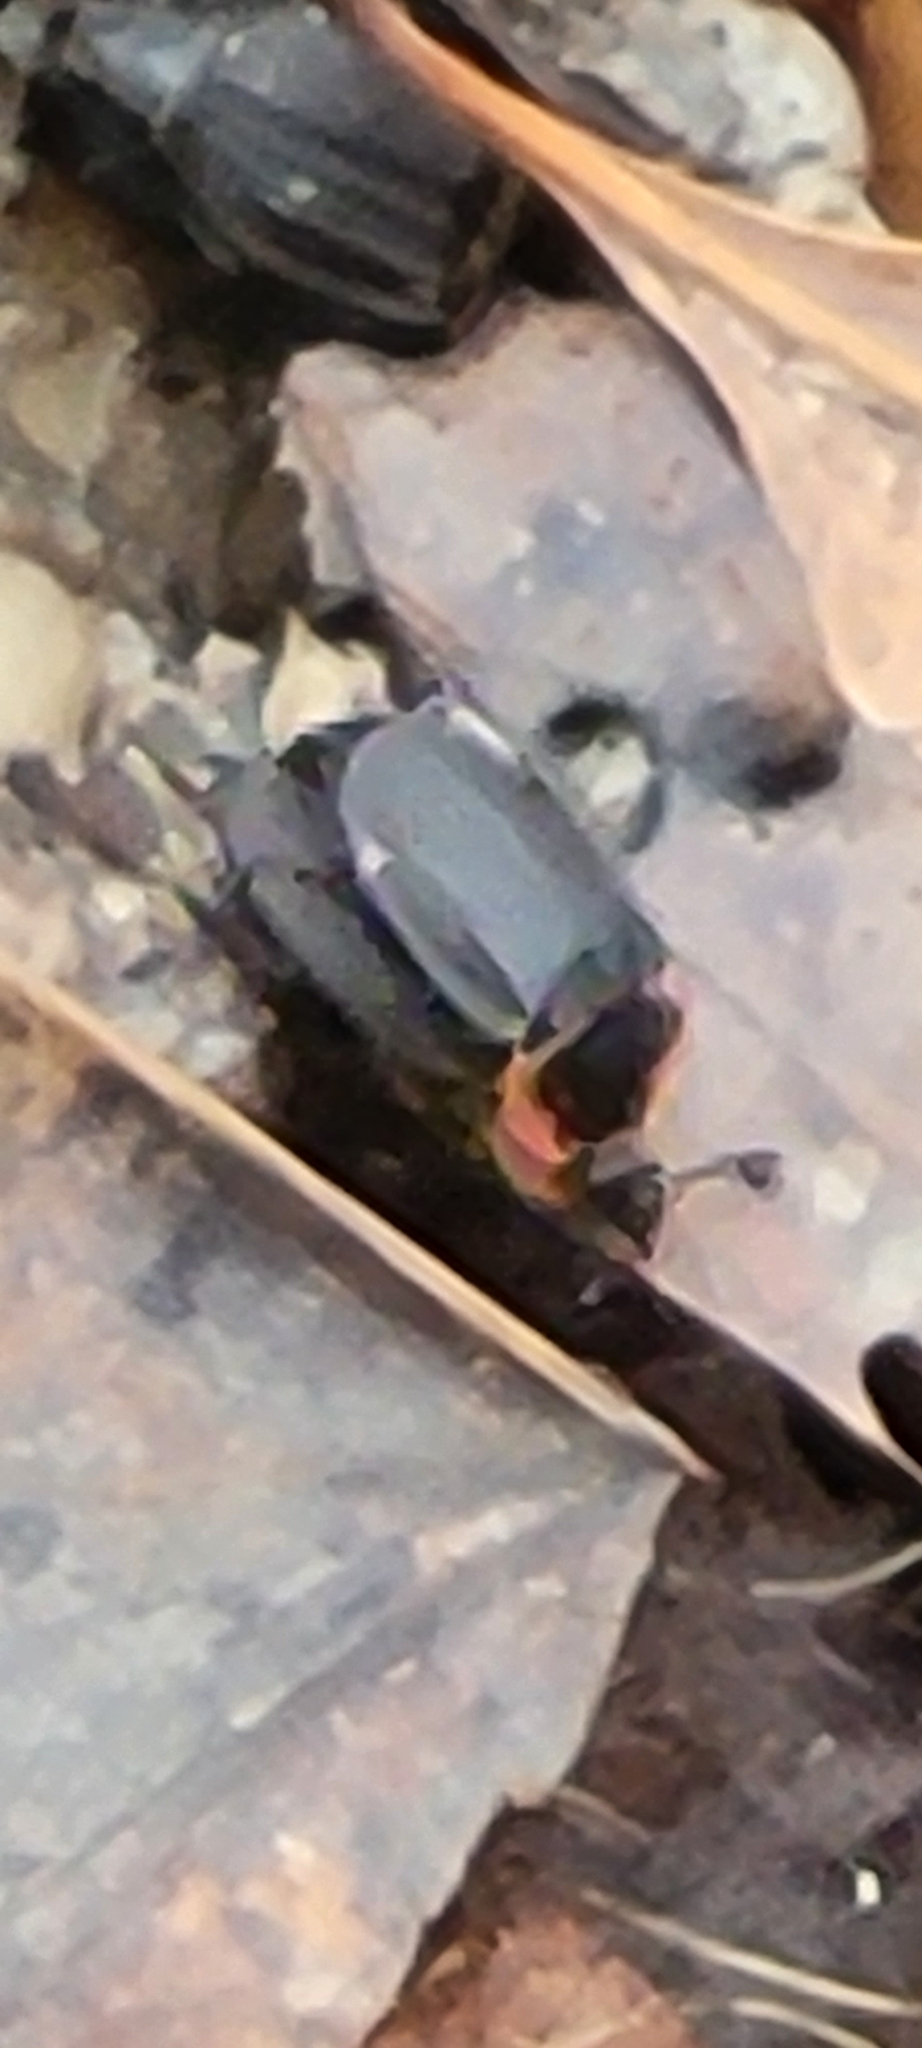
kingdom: Animalia
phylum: Arthropoda
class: Insecta
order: Coleoptera
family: Staphylinidae
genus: Oiceoptoma
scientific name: Oiceoptoma noveboracense
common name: Margined carrion beetle
